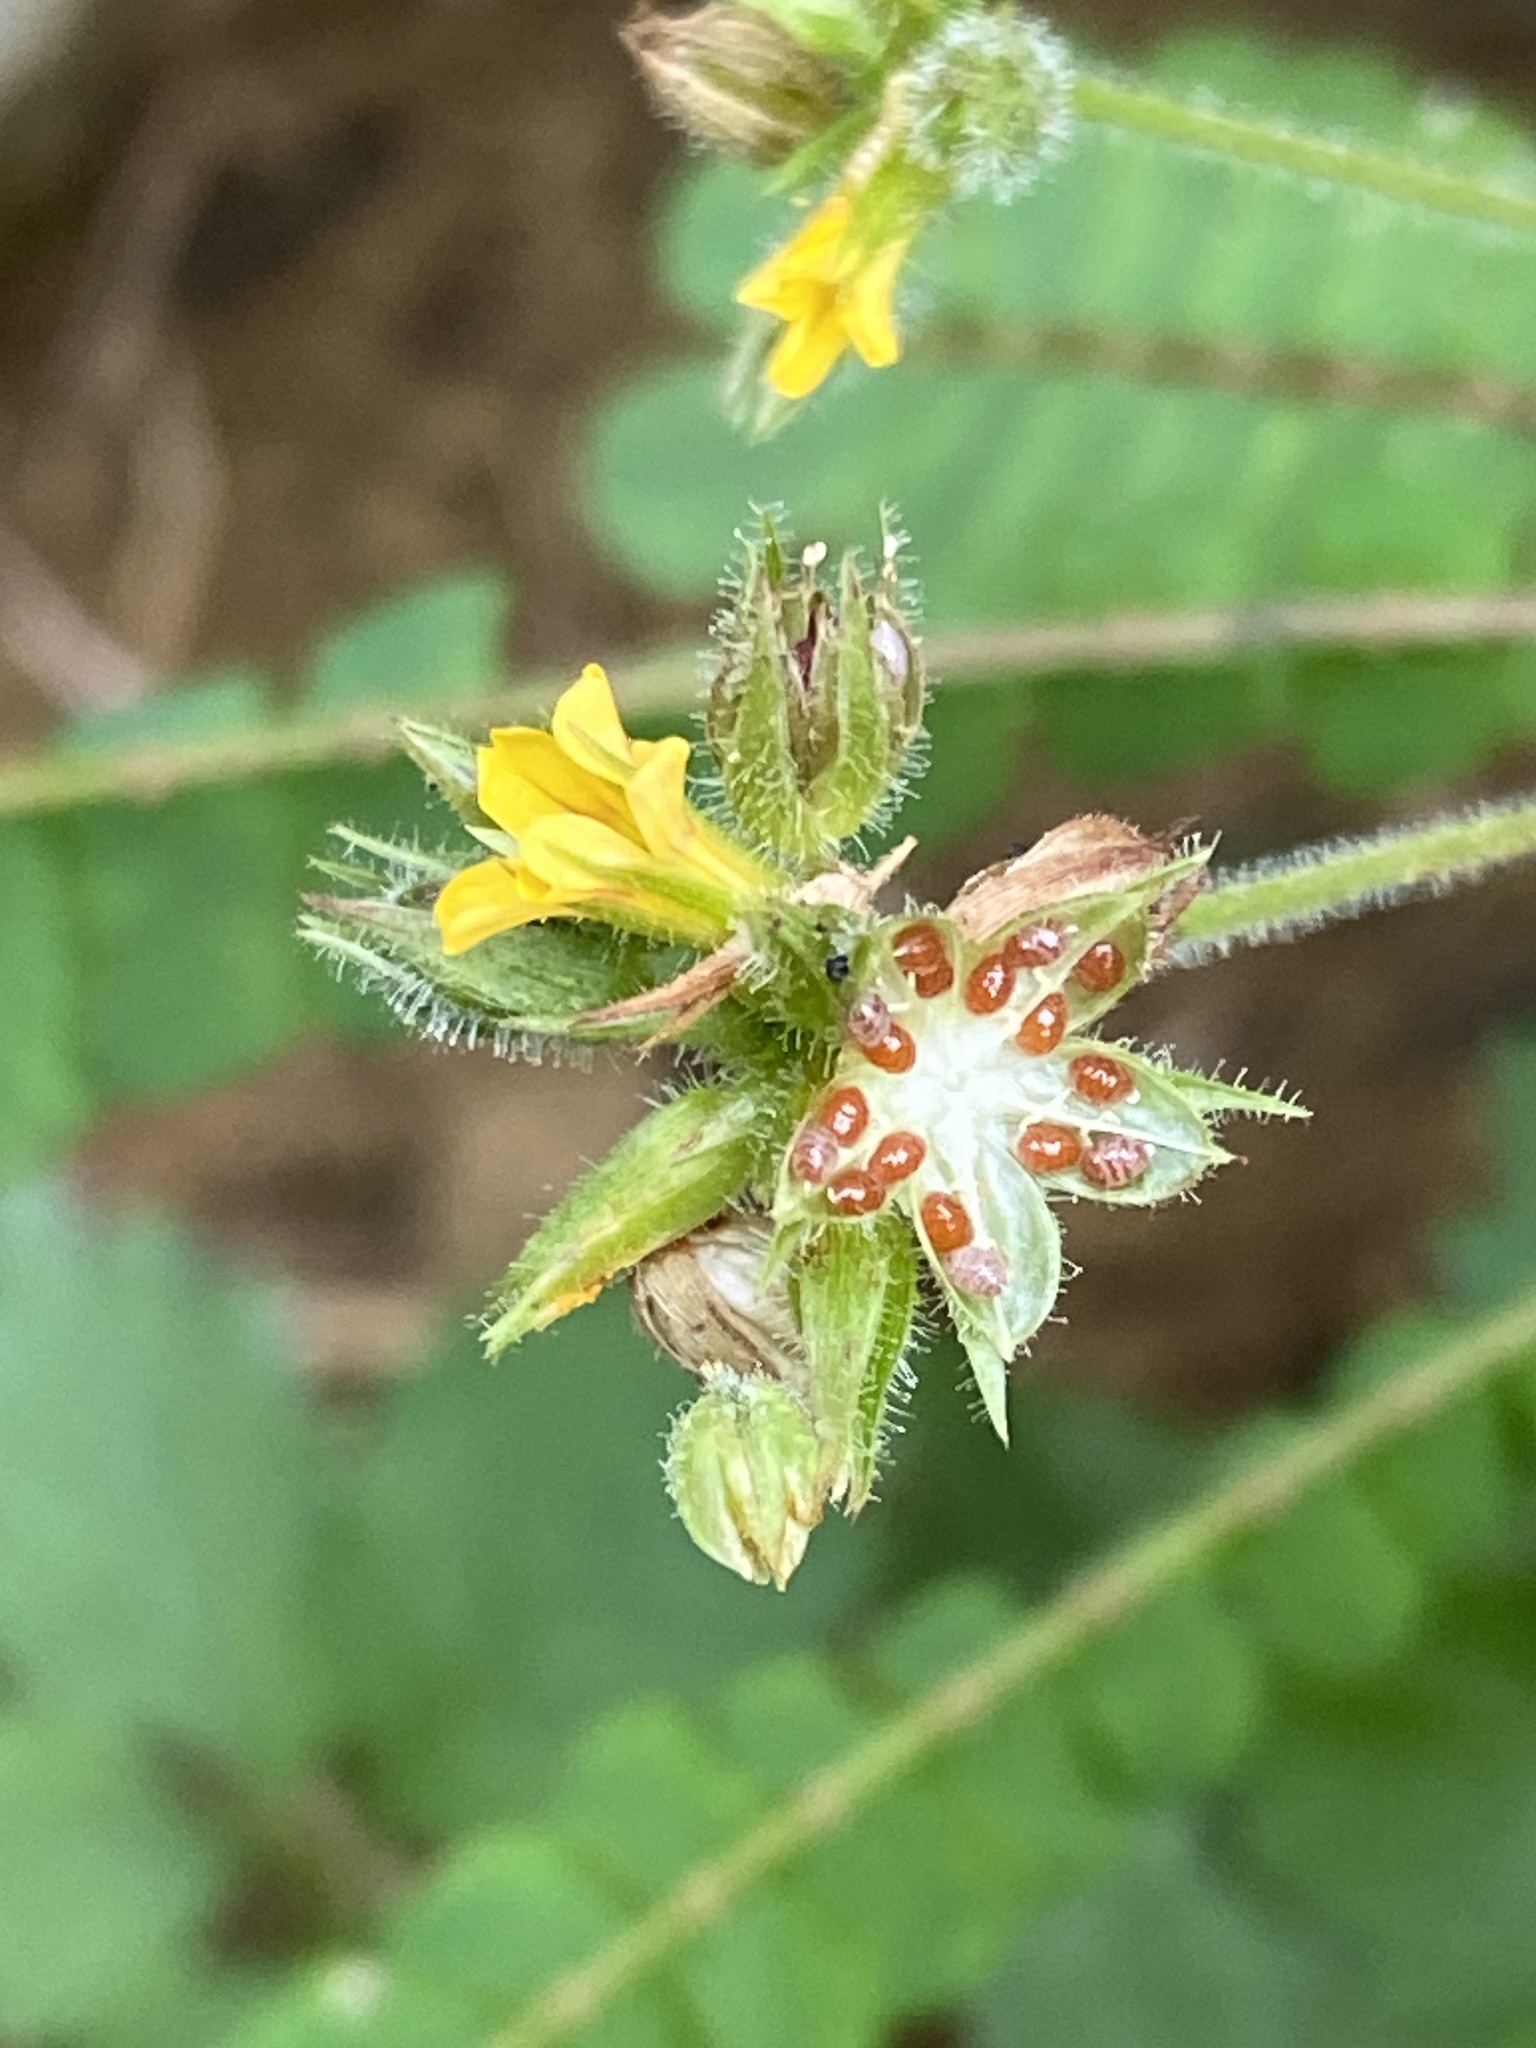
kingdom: Plantae
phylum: Tracheophyta
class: Magnoliopsida
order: Oxalidales
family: Oxalidaceae
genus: Biophytum
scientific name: Biophytum sensitivum
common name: Lifeplant
